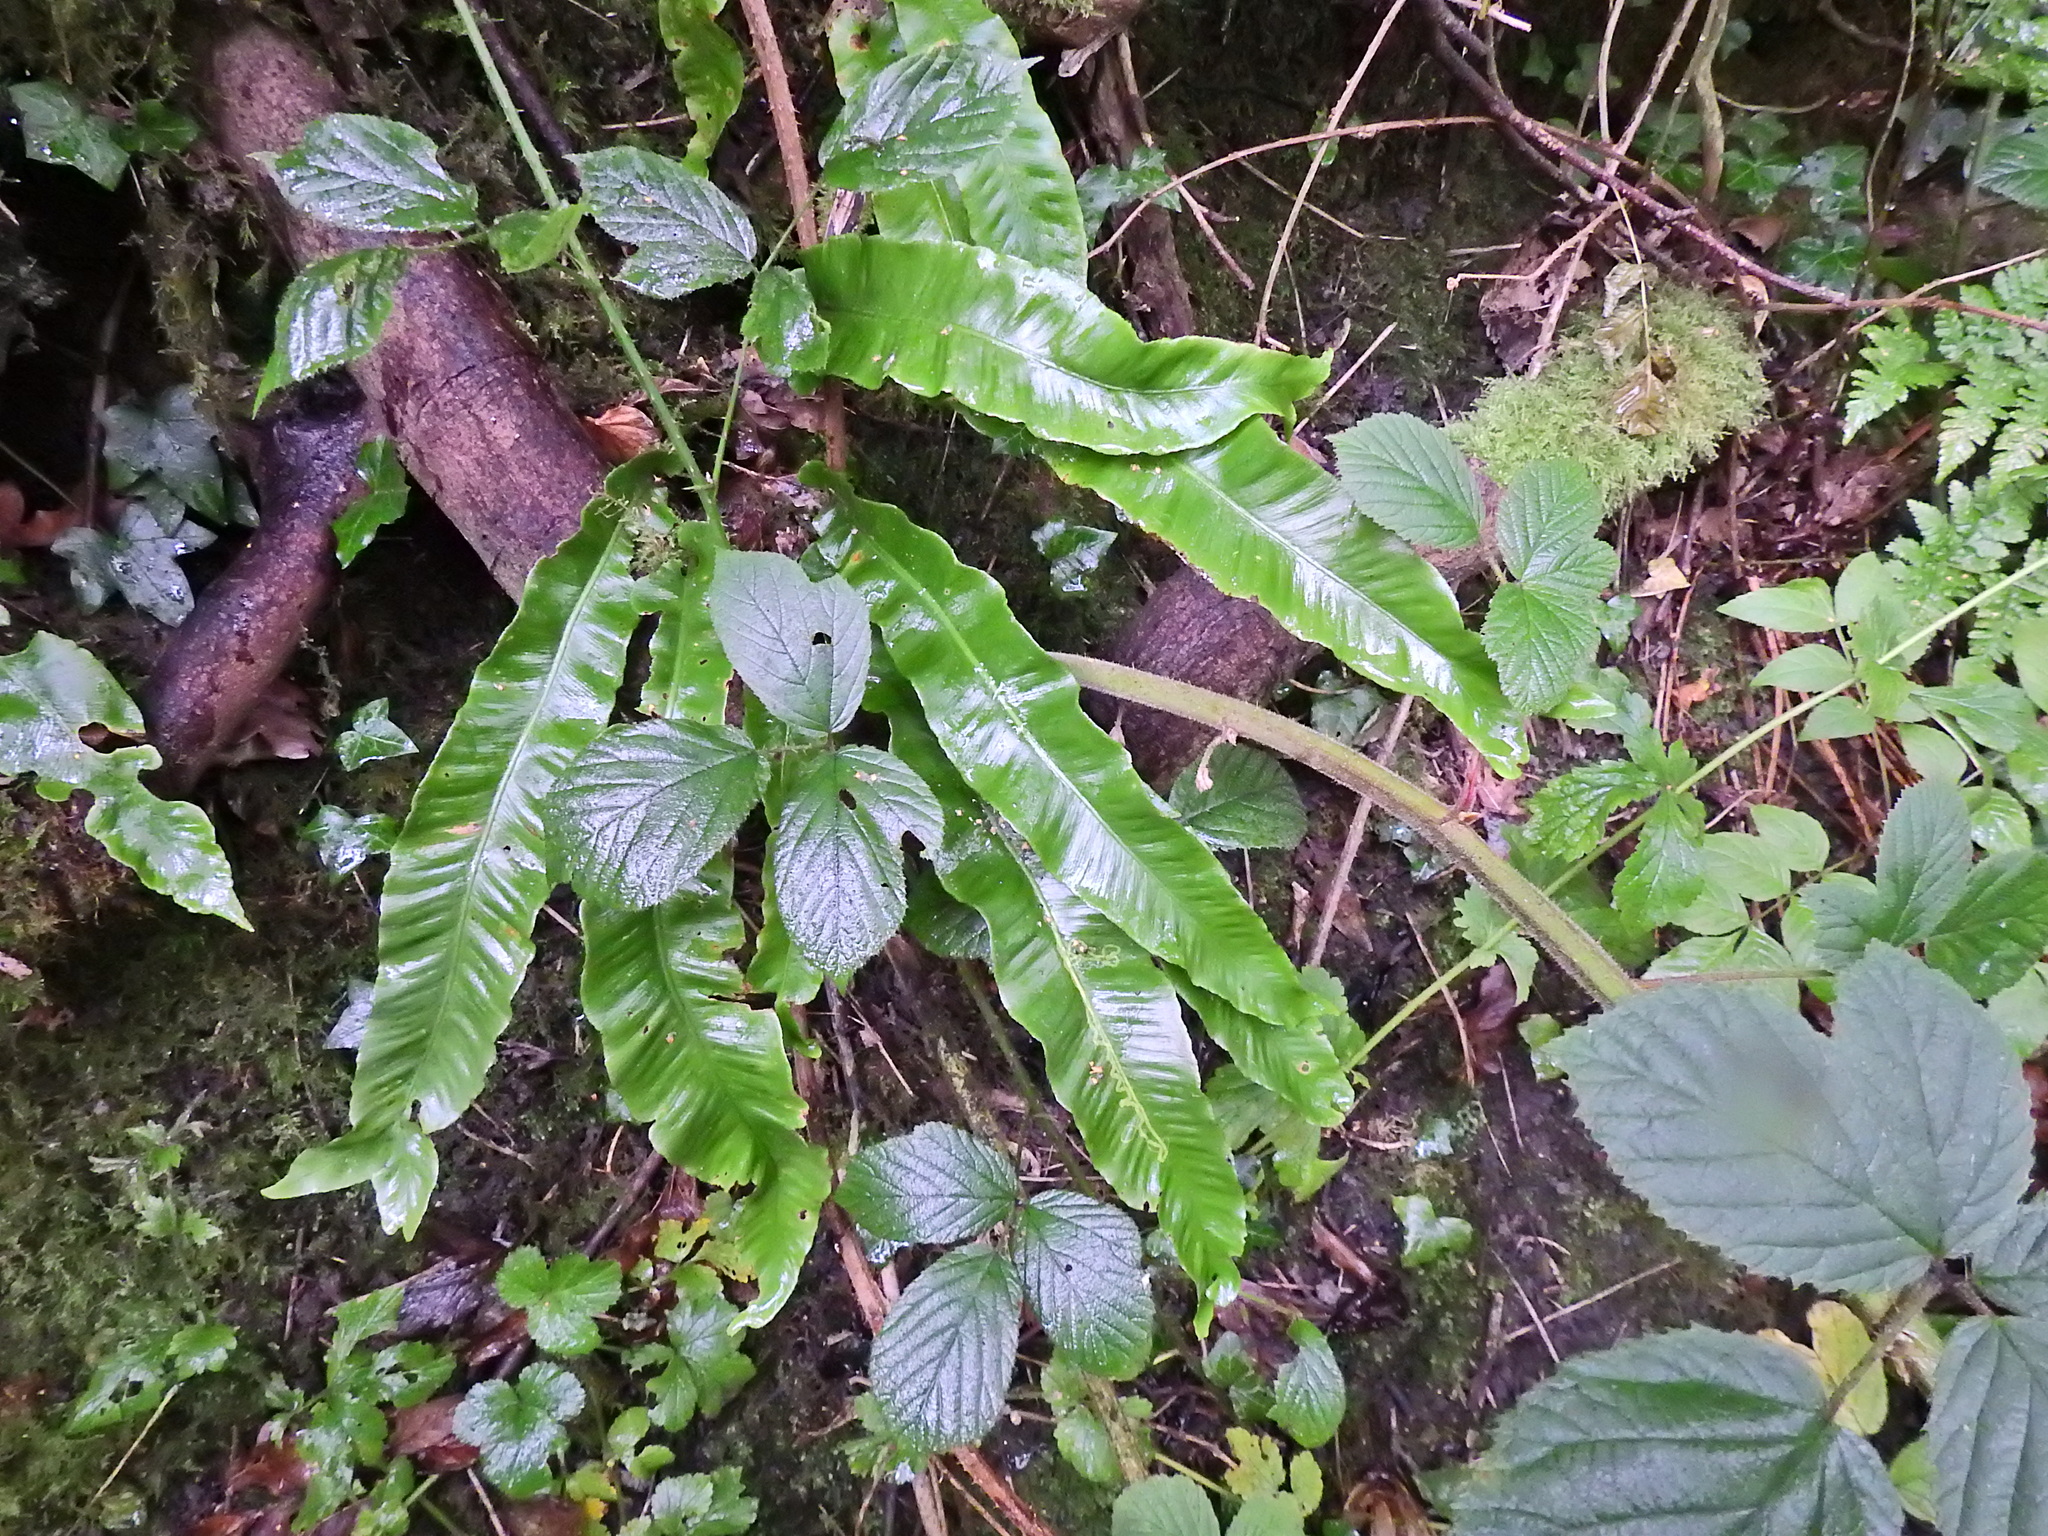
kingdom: Plantae
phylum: Tracheophyta
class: Polypodiopsida
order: Polypodiales
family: Aspleniaceae
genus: Asplenium
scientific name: Asplenium scolopendrium
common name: Hart's-tongue fern
